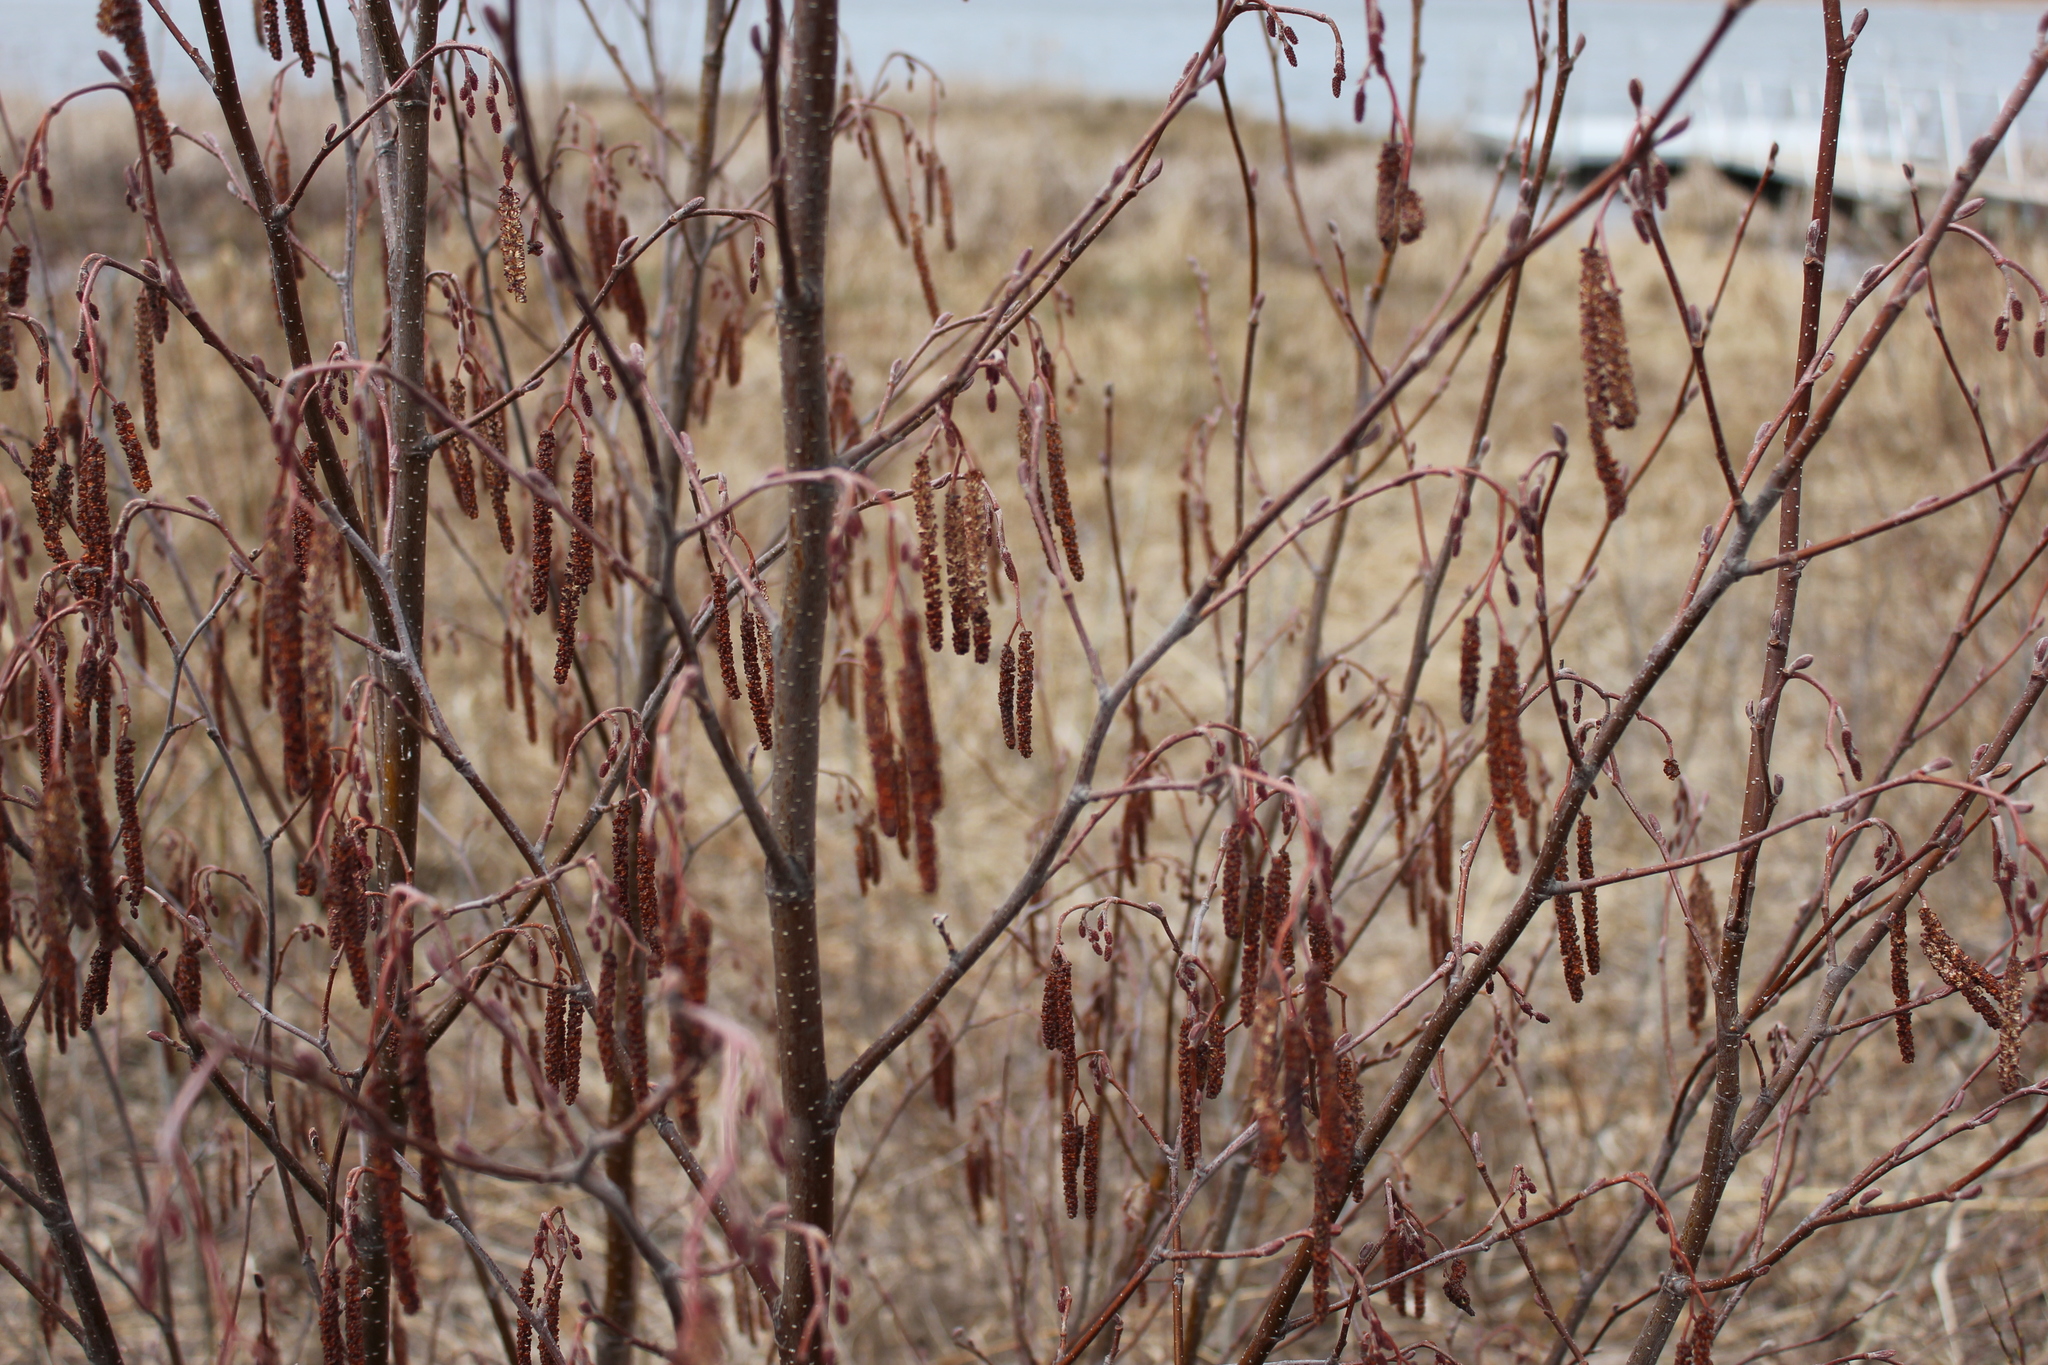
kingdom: Plantae
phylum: Tracheophyta
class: Magnoliopsida
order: Fagales
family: Betulaceae
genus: Alnus
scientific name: Alnus incana
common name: Grey alder
